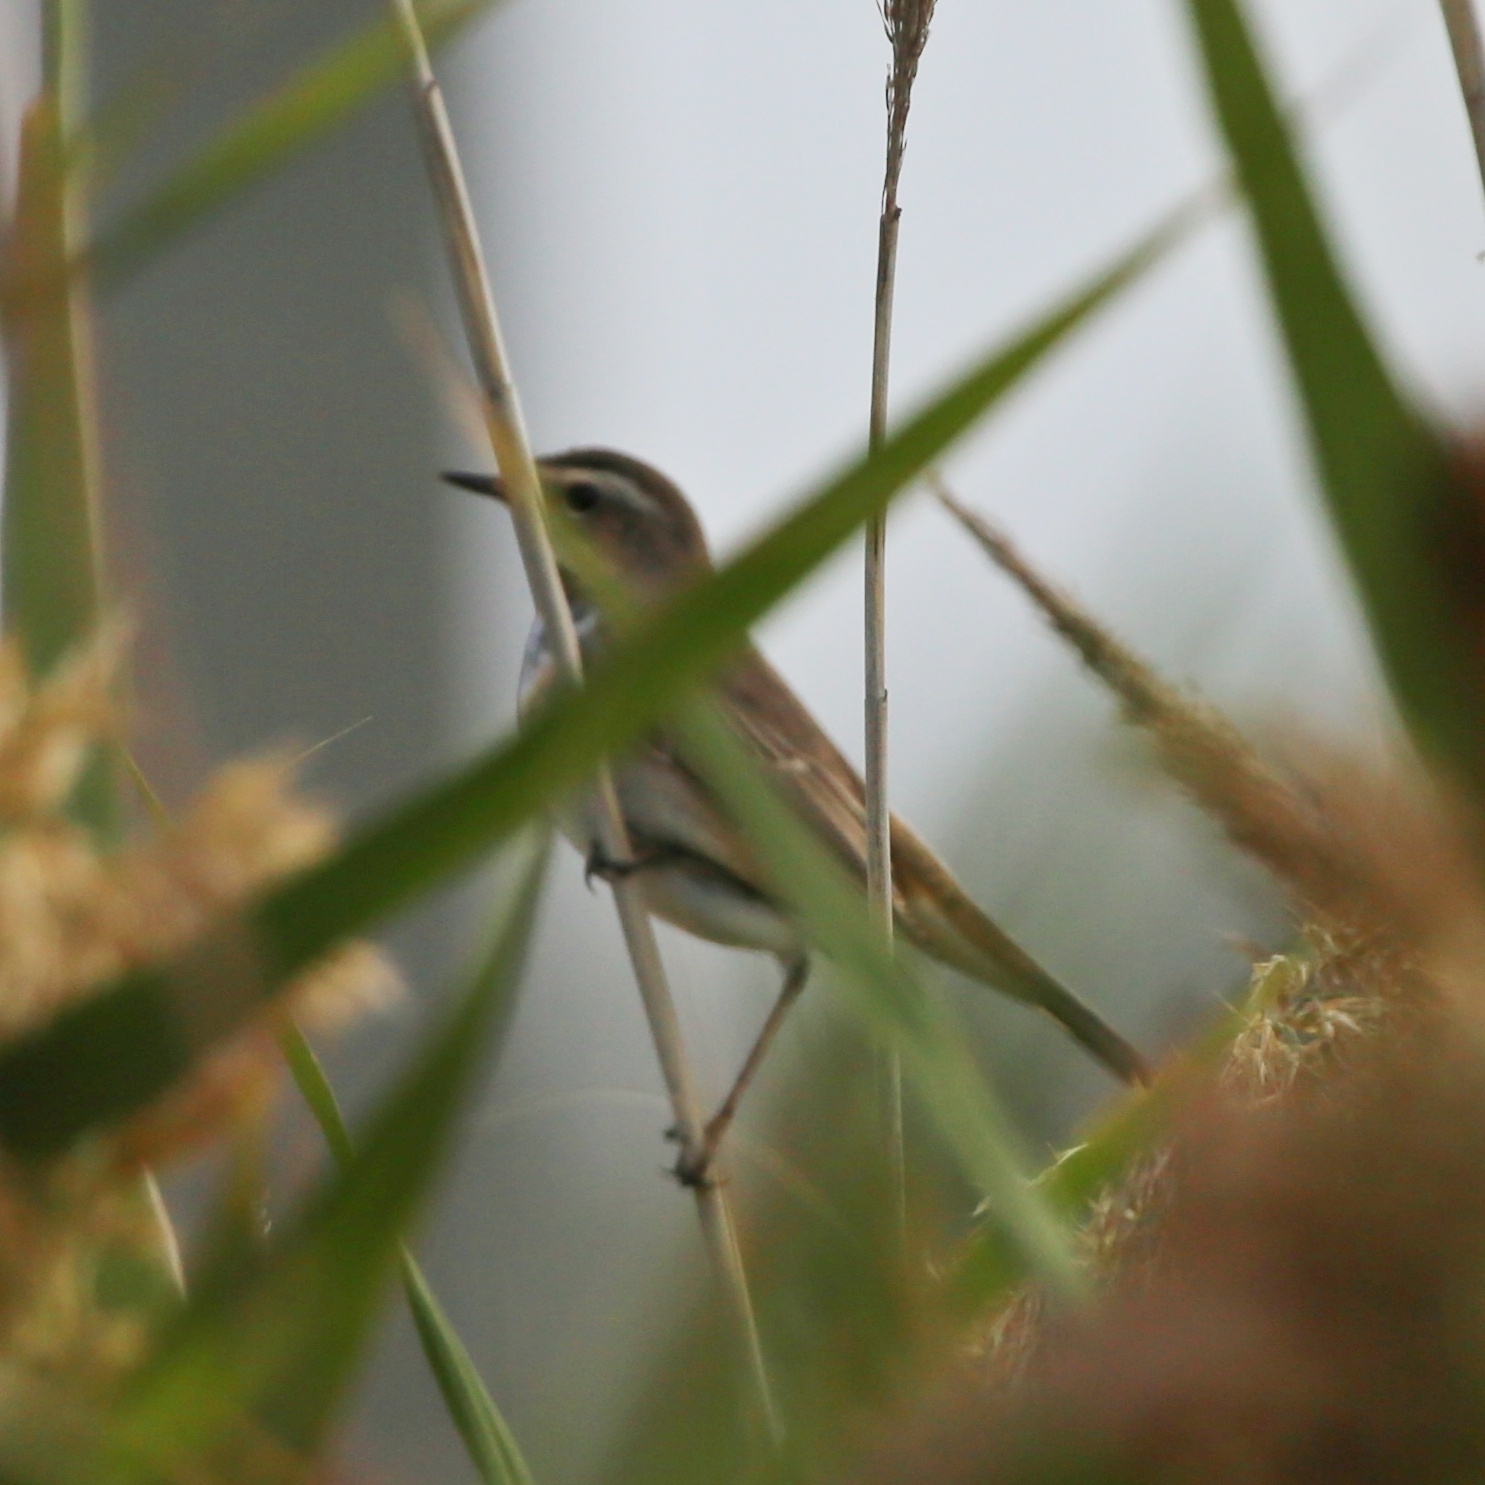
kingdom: Animalia
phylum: Chordata
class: Aves
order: Passeriformes
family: Muscicapidae
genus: Luscinia
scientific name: Luscinia svecica
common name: Bluethroat
